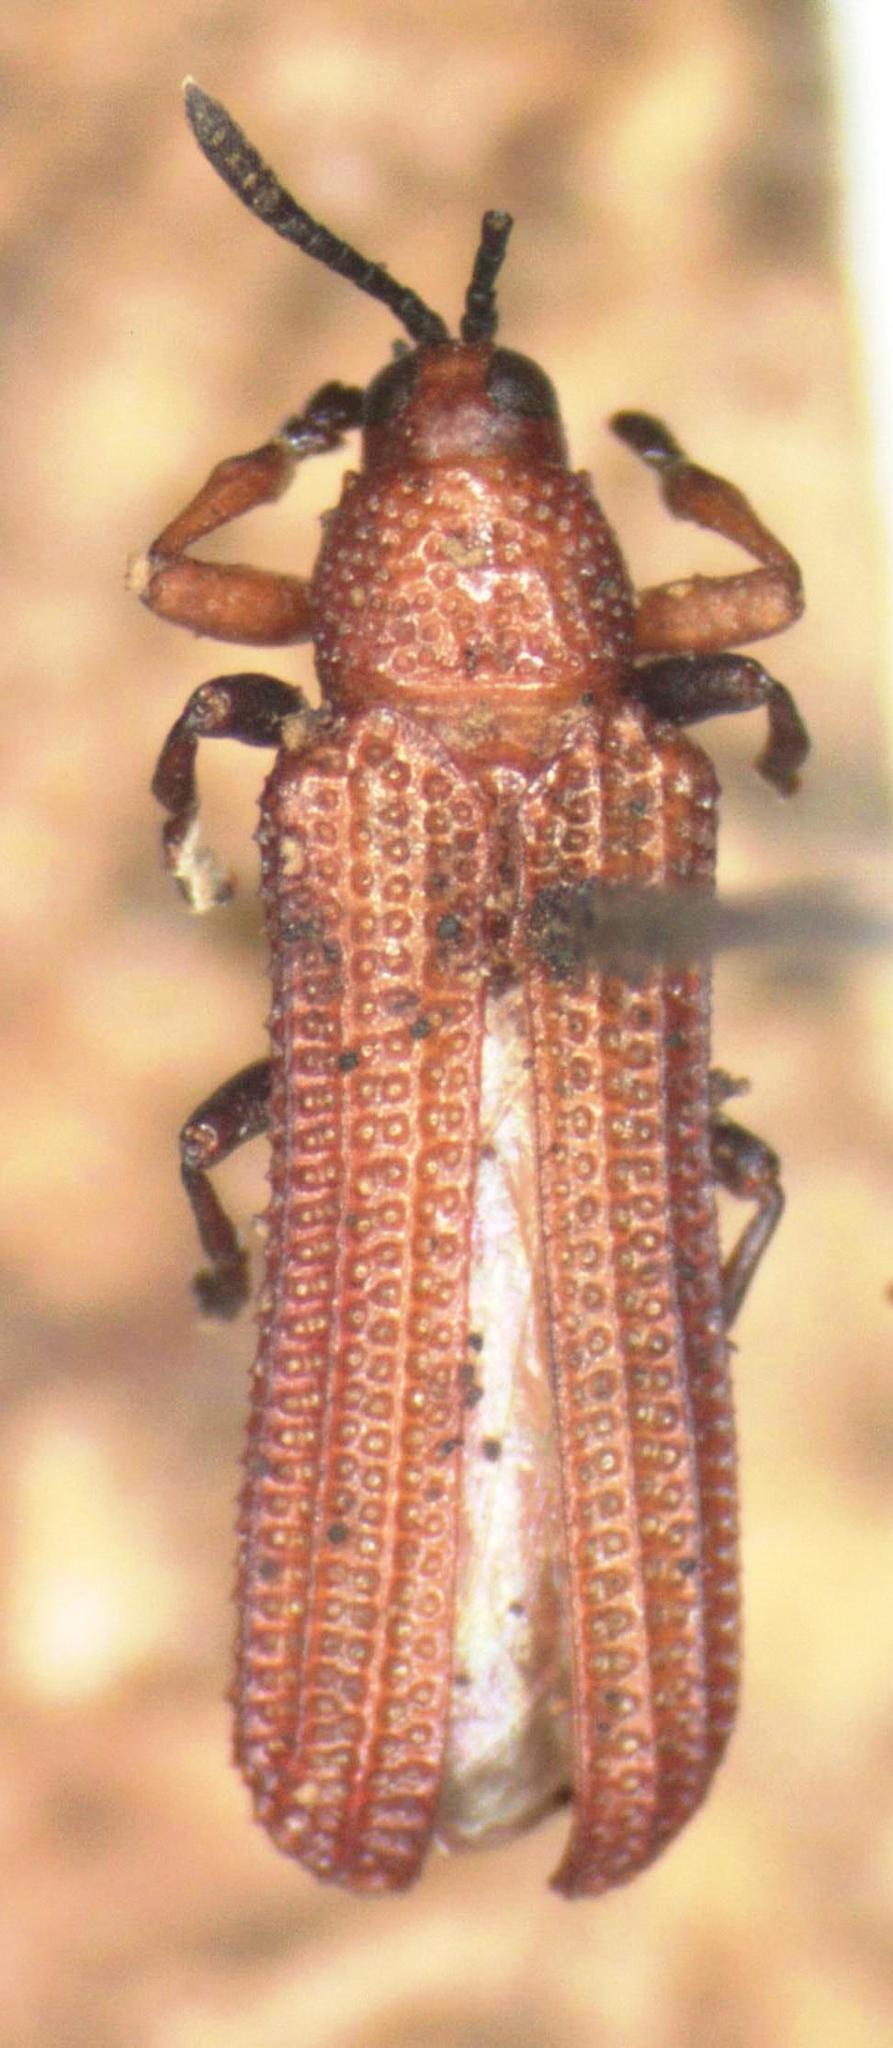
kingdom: Animalia
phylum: Arthropoda
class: Insecta
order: Coleoptera
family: Chrysomelidae
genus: Heptispa
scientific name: Heptispa solarii
